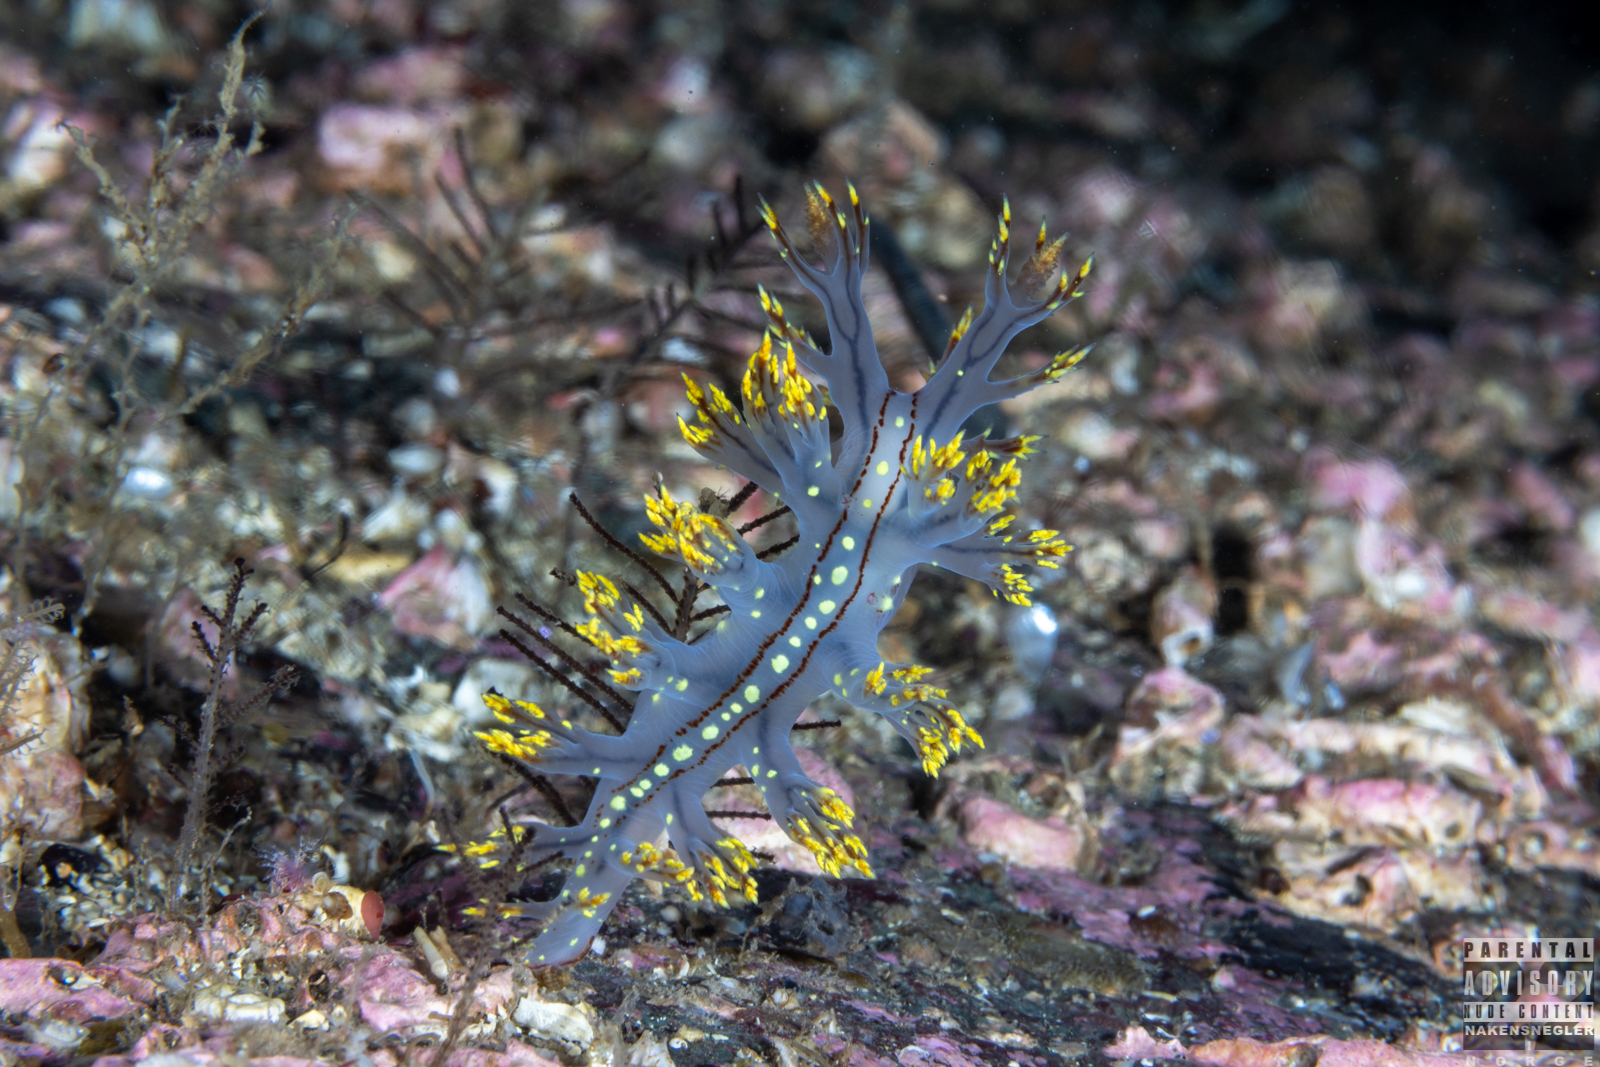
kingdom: Animalia
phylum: Mollusca
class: Gastropoda
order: Nudibranchia
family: Dendronotidae
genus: Dendronotus
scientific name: Dendronotus yrjargul
